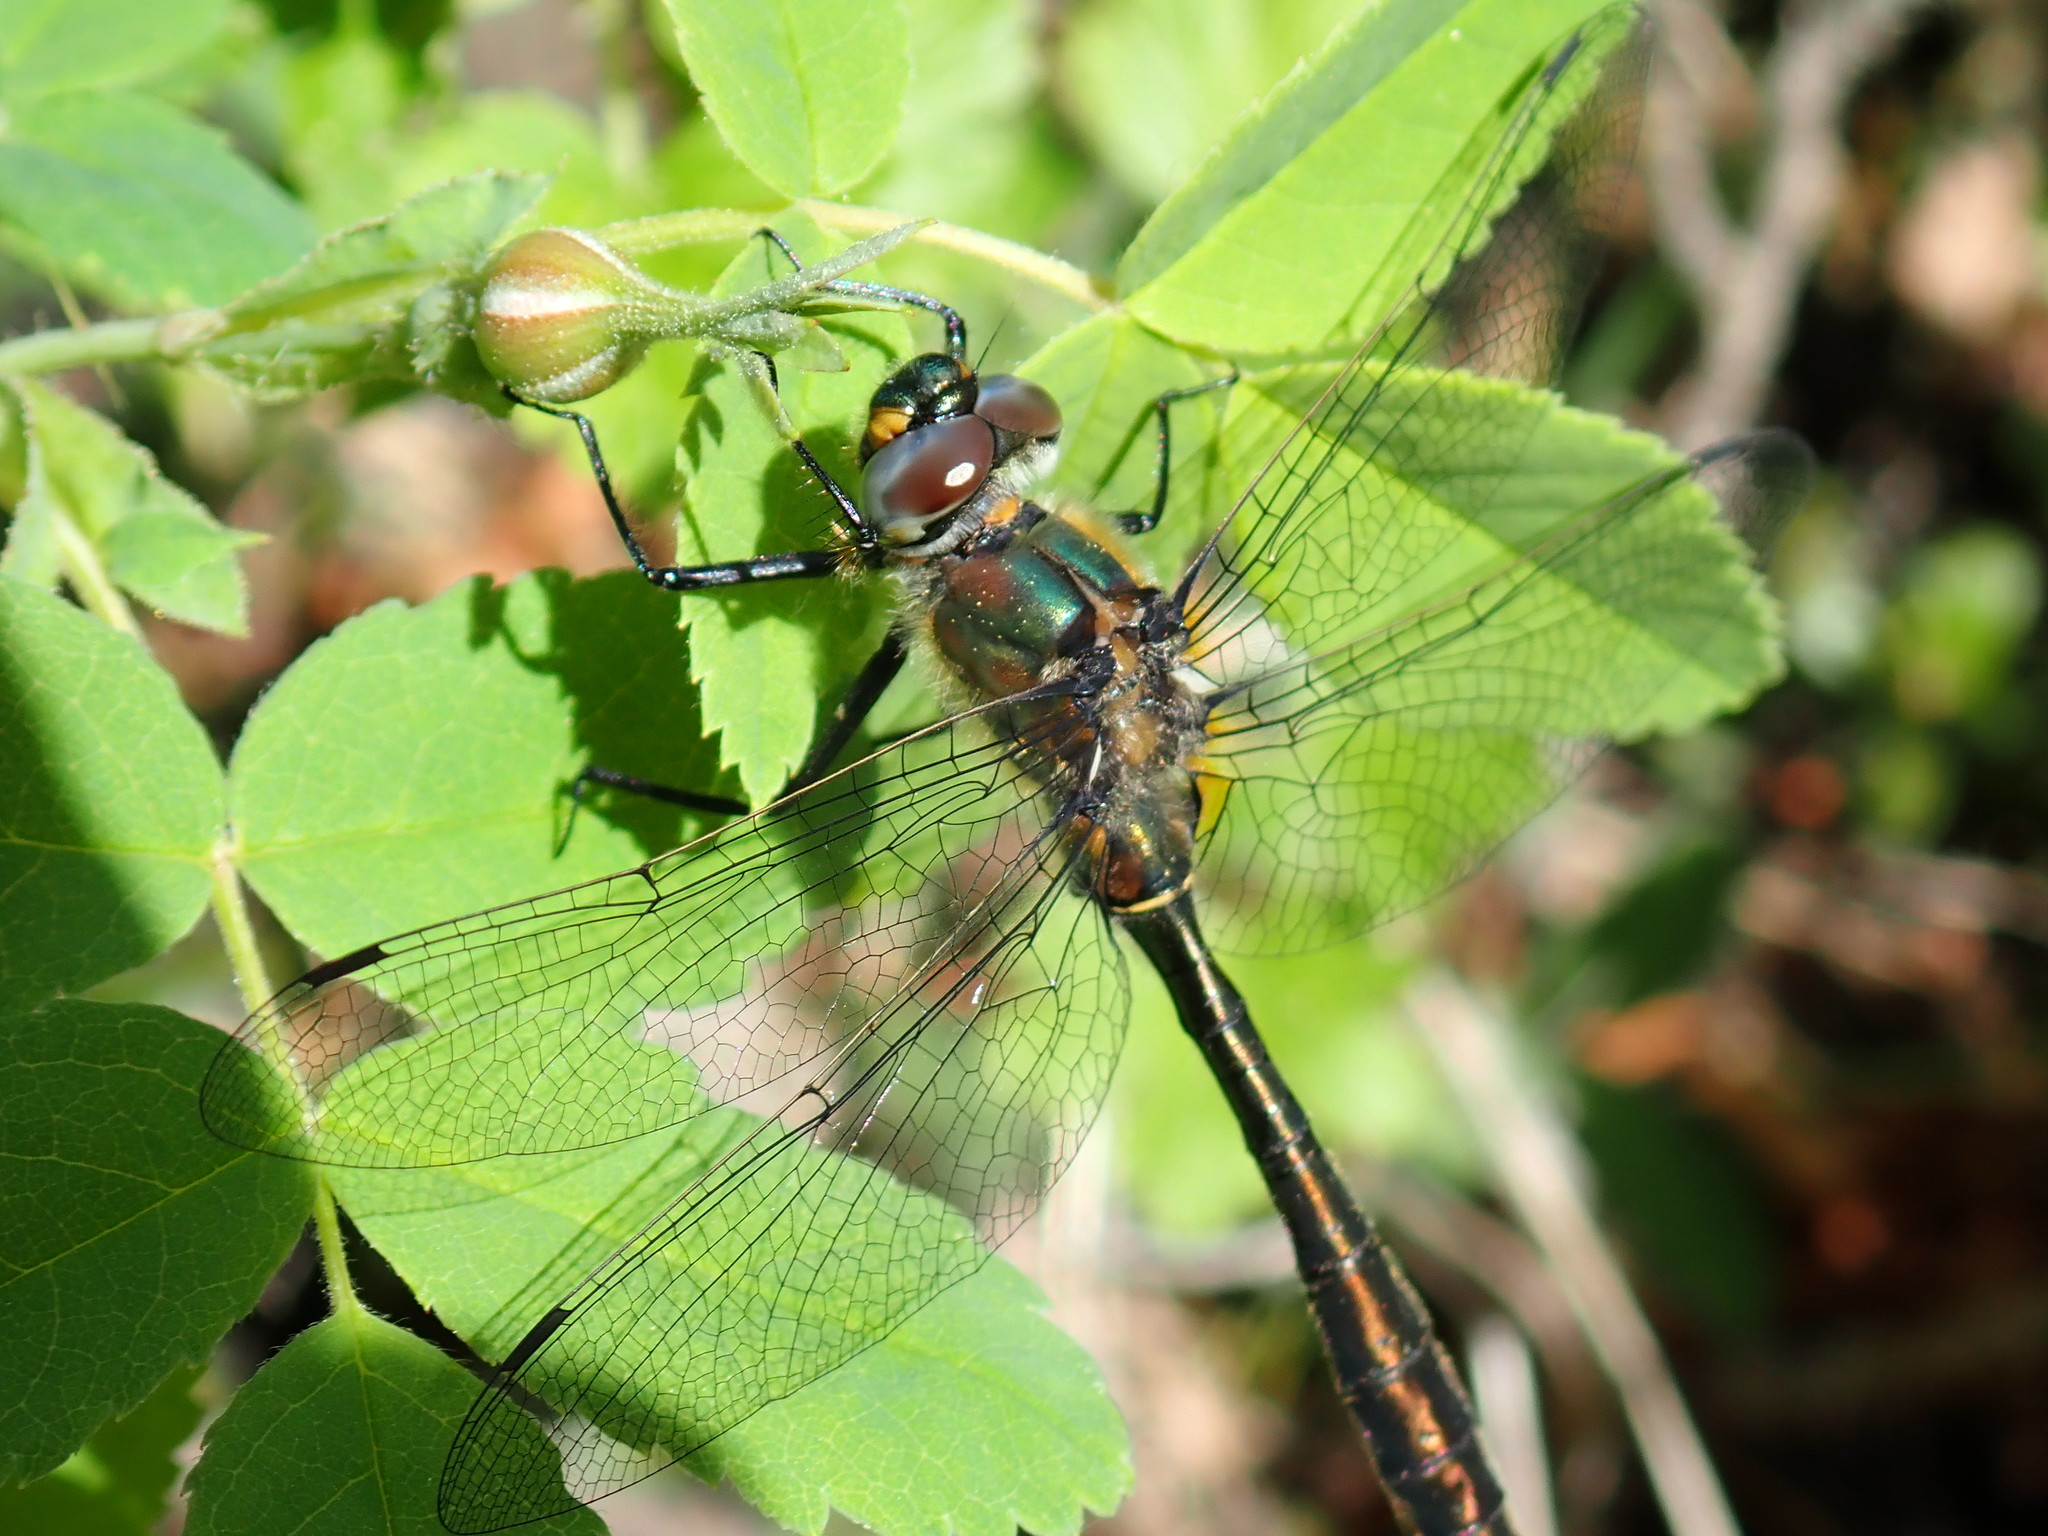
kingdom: Animalia
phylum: Arthropoda
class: Insecta
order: Odonata
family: Corduliidae
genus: Cordulia
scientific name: Cordulia shurtleffii
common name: American emerald
